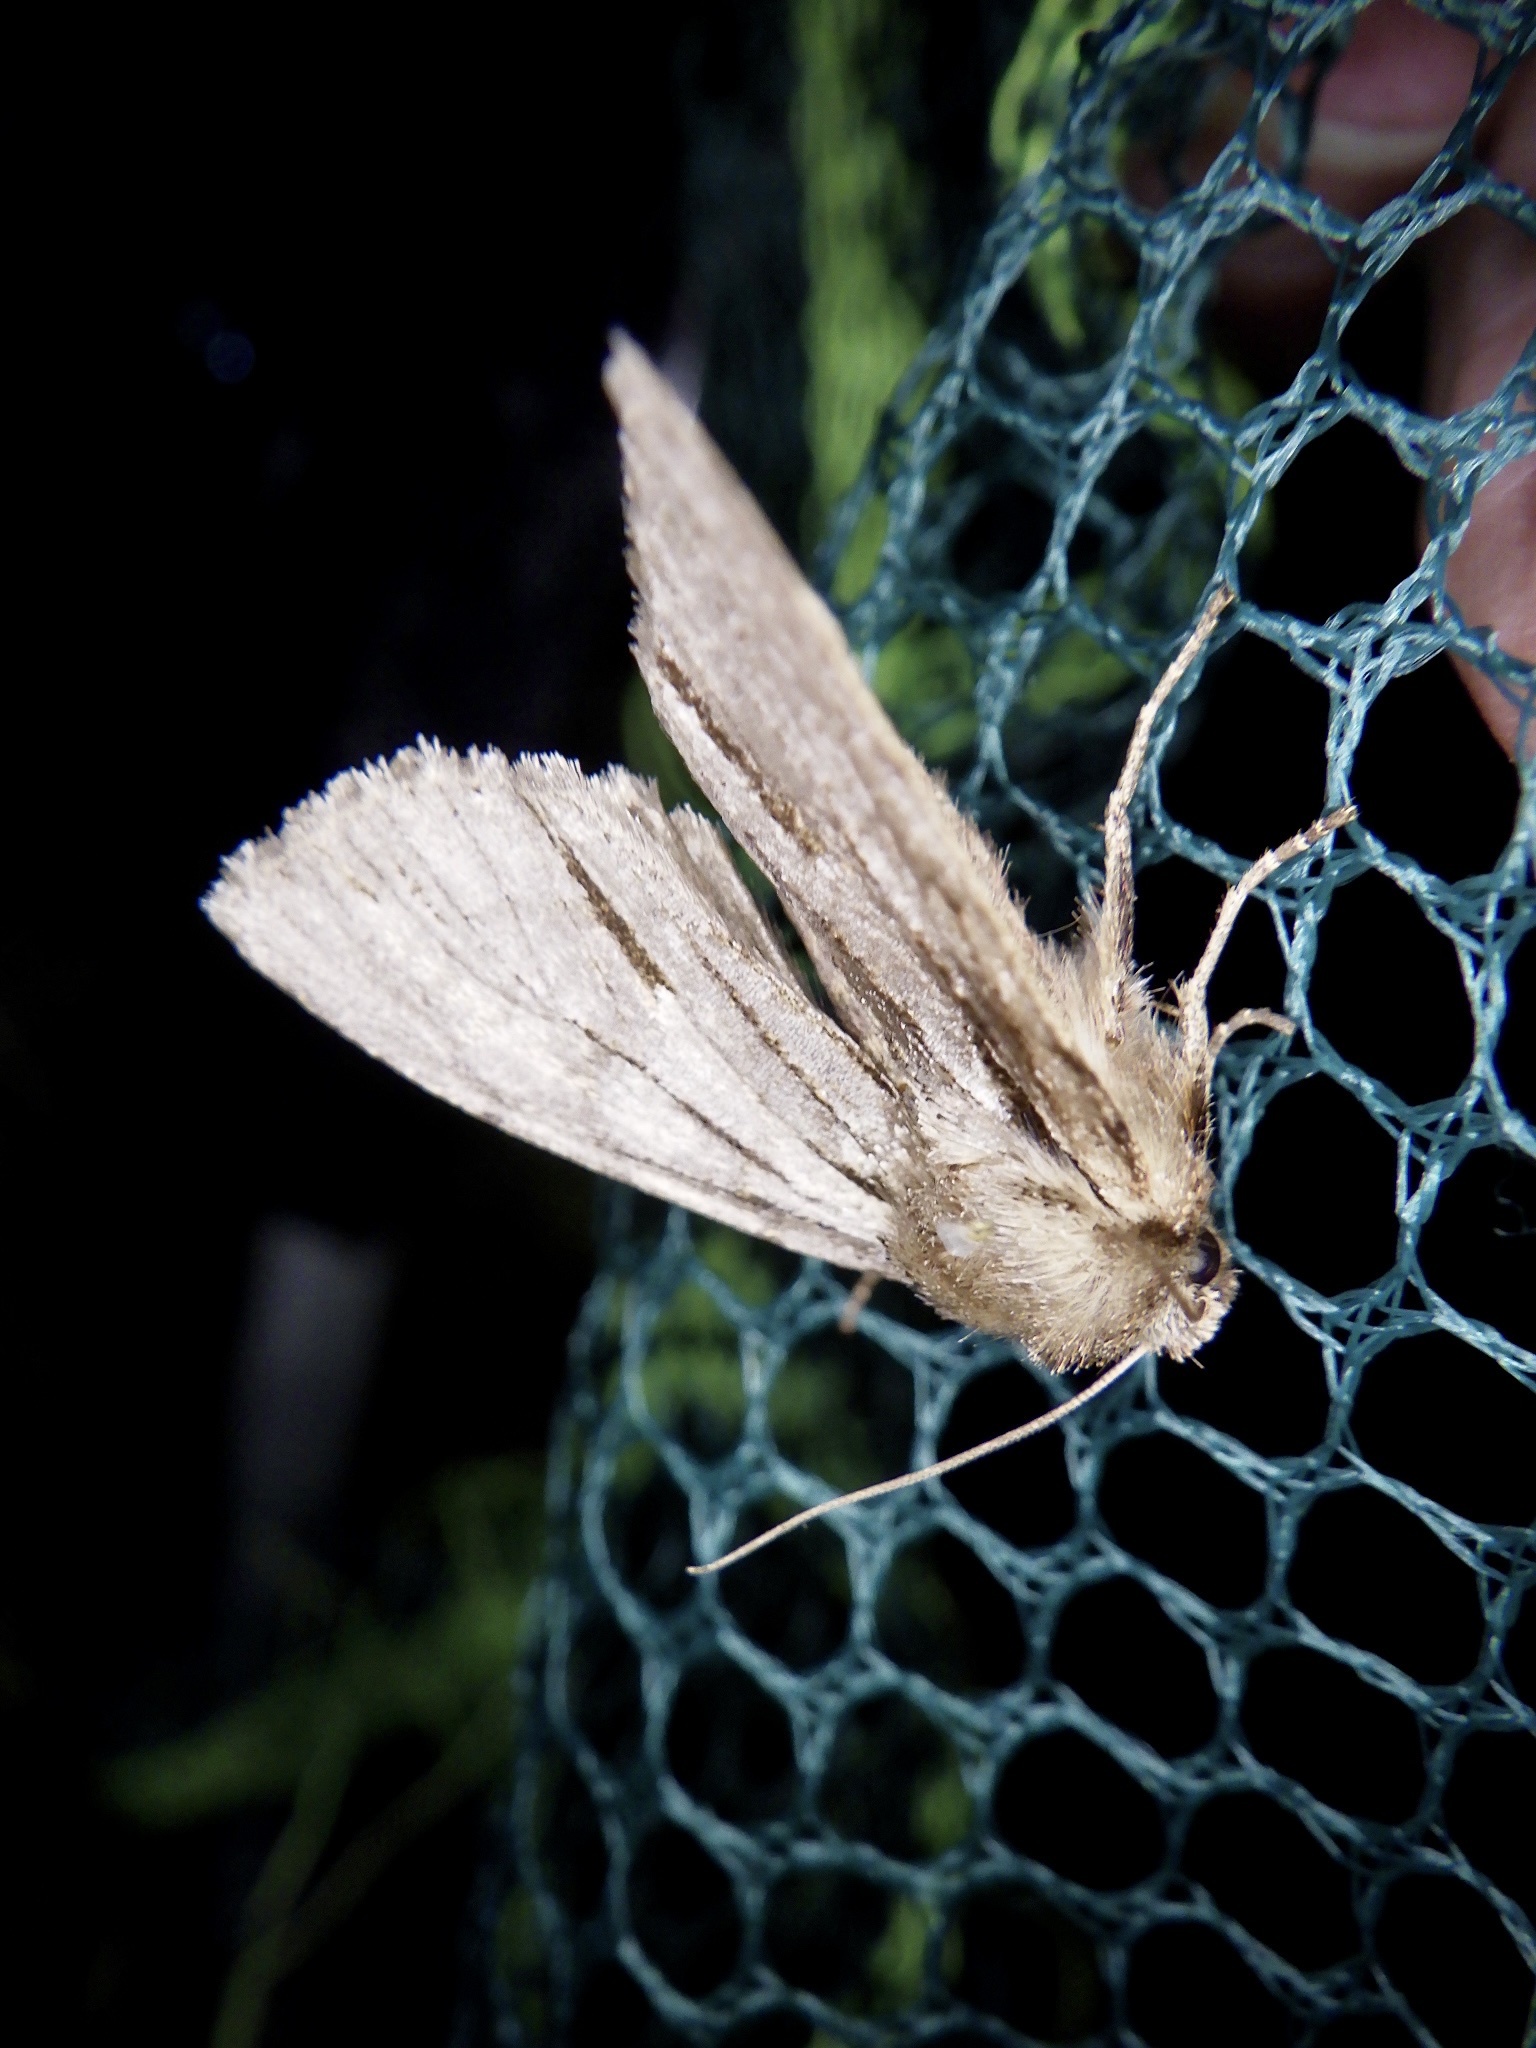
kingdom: Animalia
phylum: Arthropoda
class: Insecta
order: Lepidoptera
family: Noctuidae
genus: Egira
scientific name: Egira saxea
